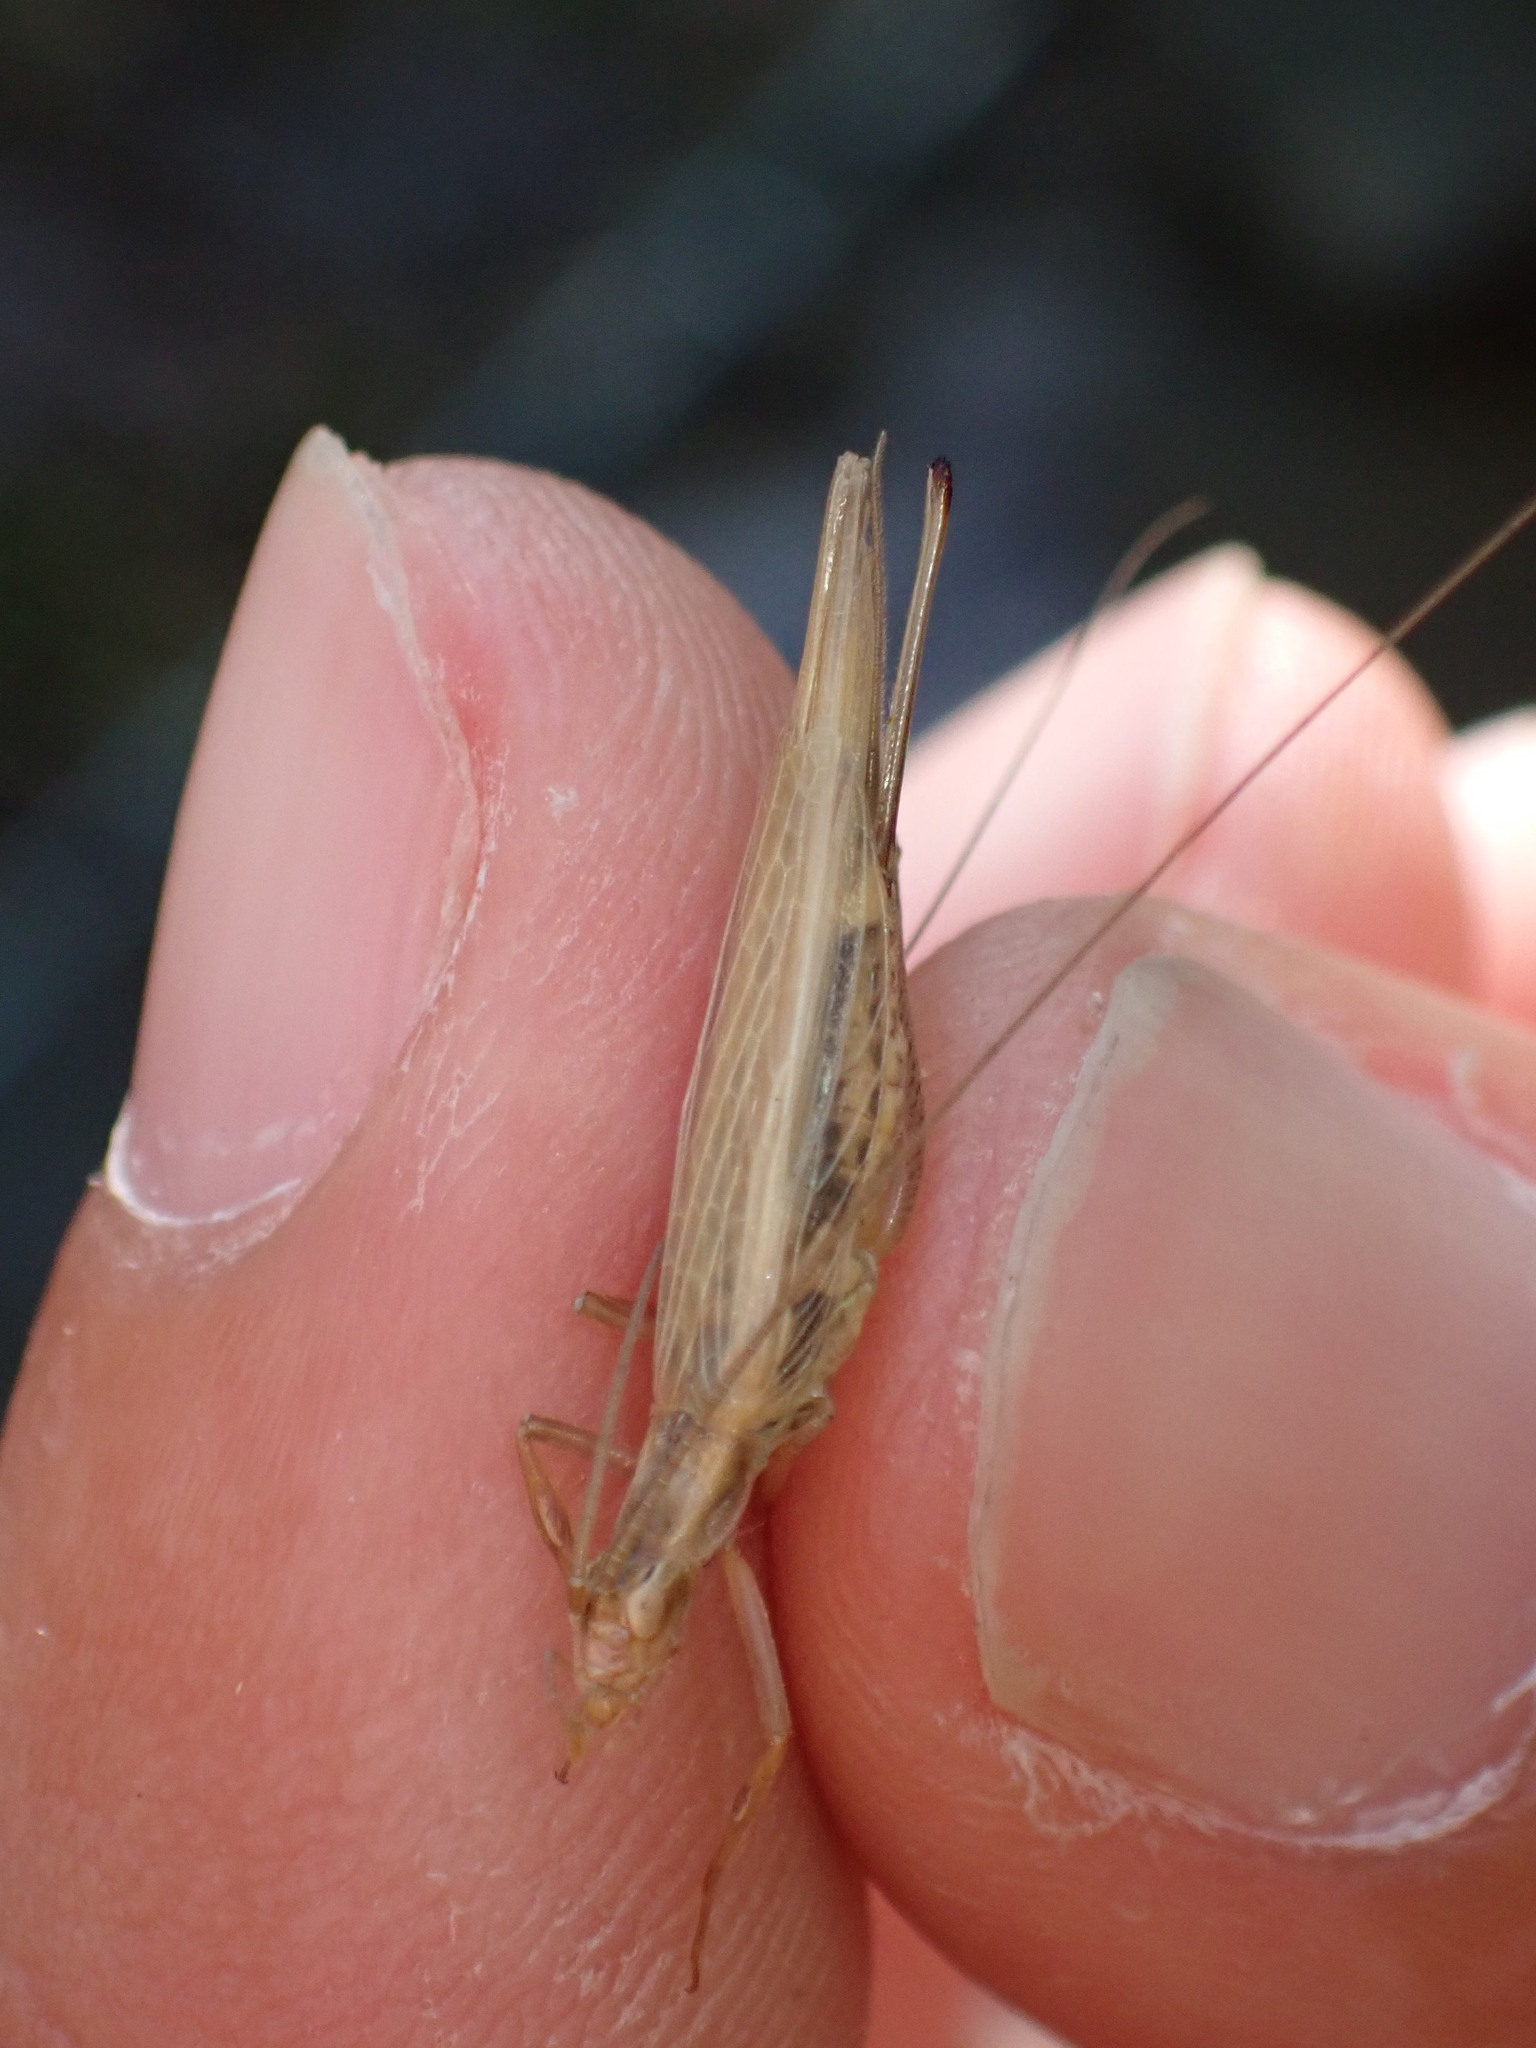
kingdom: Animalia
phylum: Arthropoda
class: Insecta
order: Orthoptera
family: Gryllidae
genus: Oecanthus
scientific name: Oecanthus pellucens
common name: Tree-cricket
